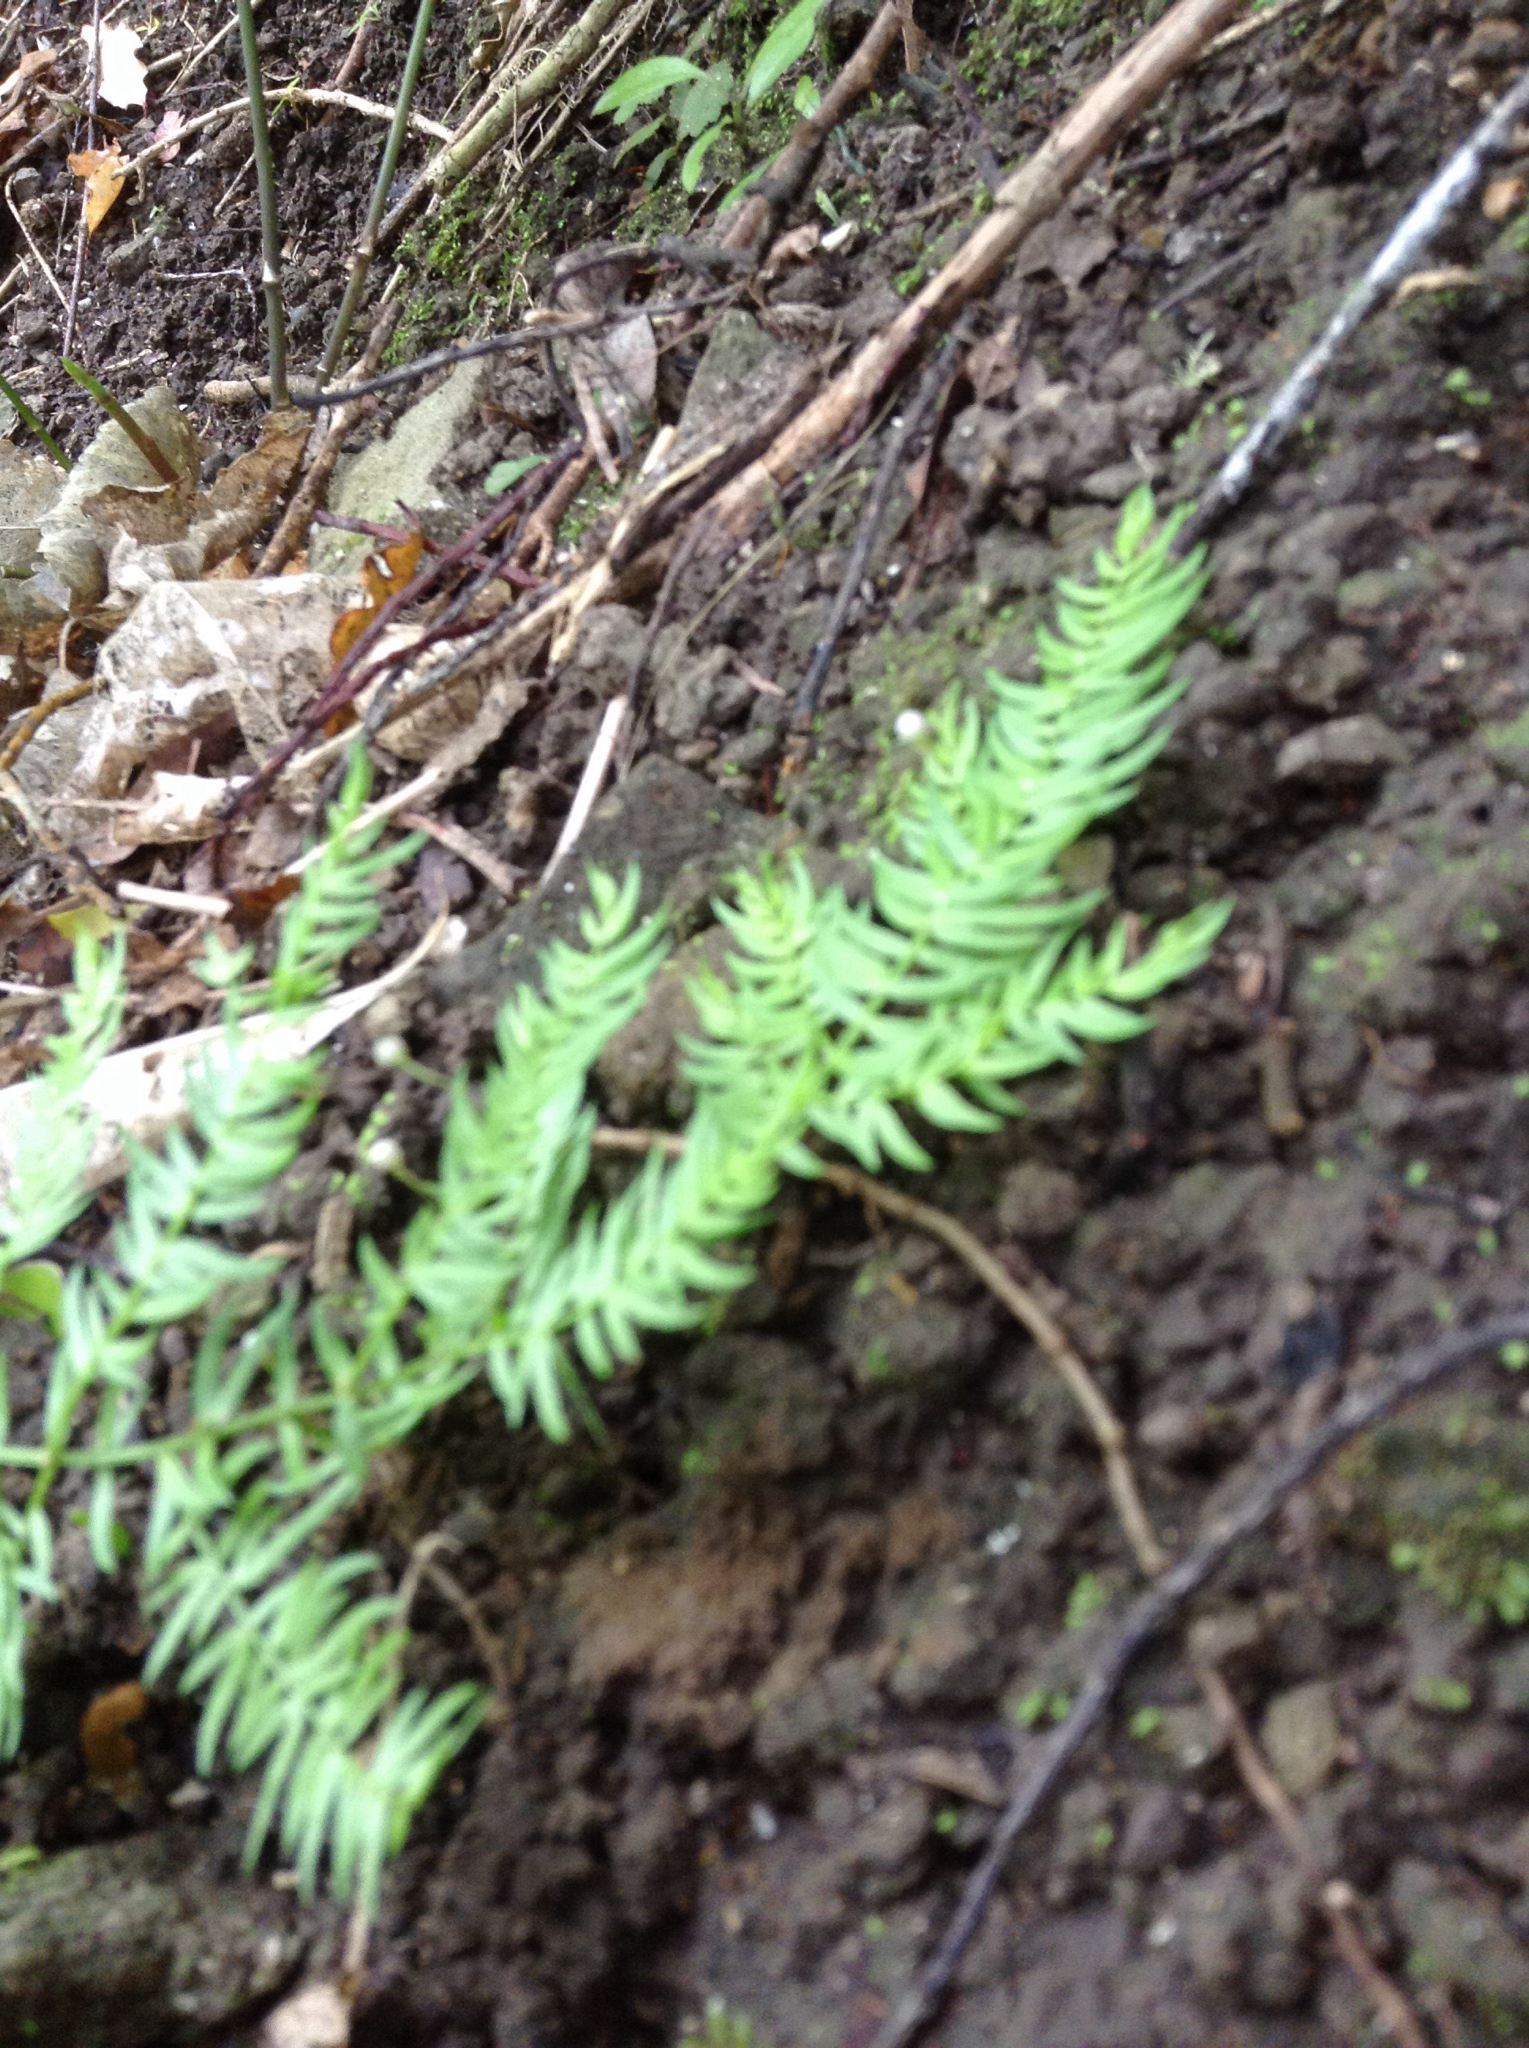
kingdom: Plantae
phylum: Tracheophyta
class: Liliopsida
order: Asparagales
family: Asparagaceae
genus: Asparagus
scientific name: Asparagus scandens
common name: Asparagus-fern
